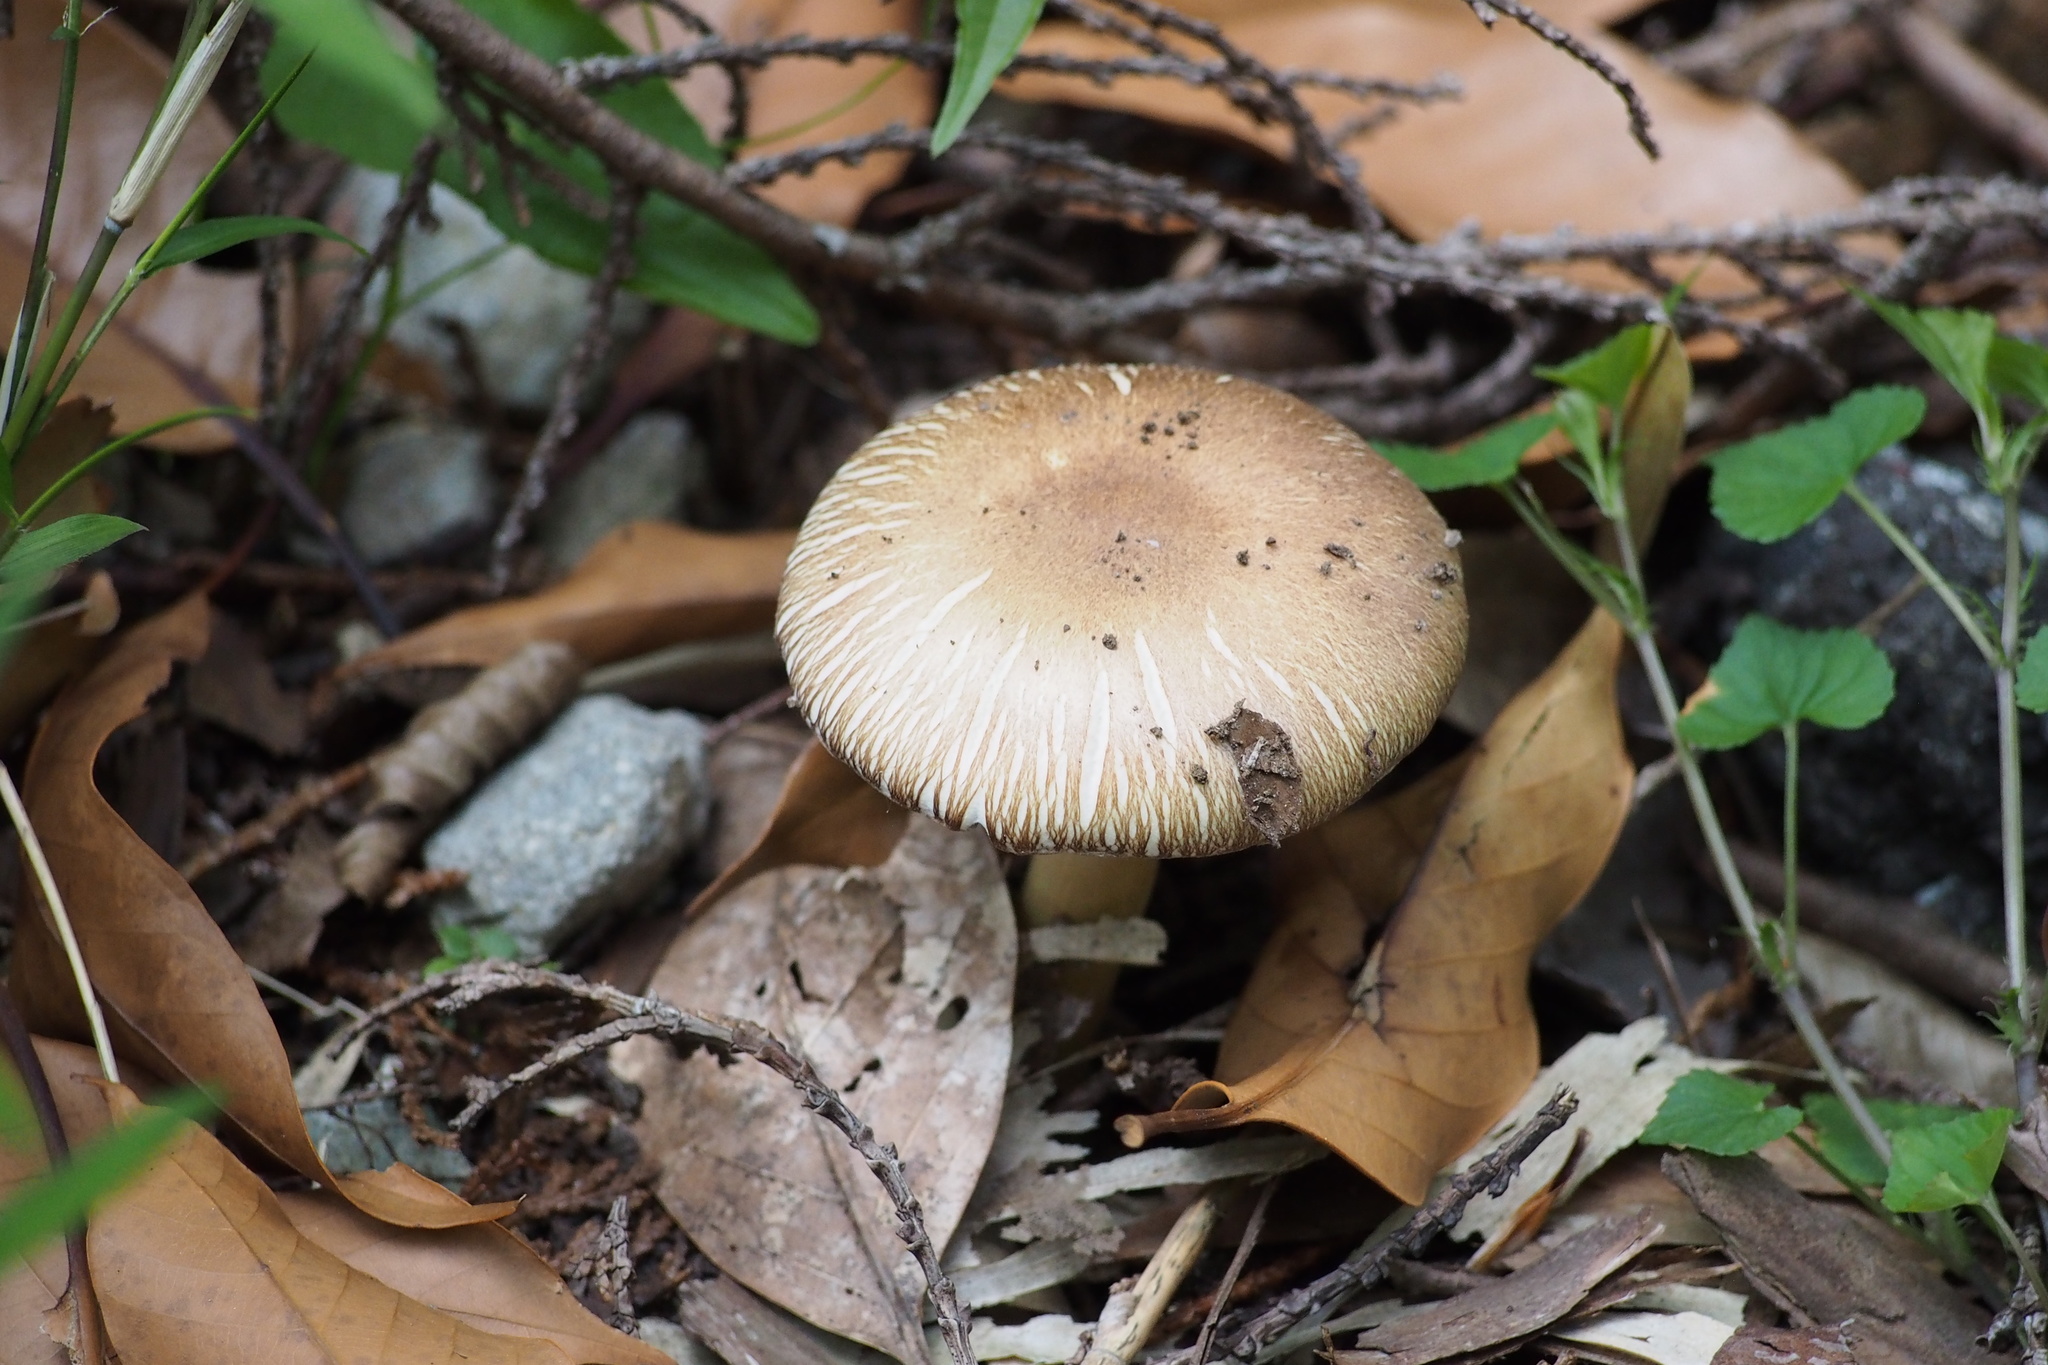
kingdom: Fungi
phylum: Basidiomycota
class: Agaricomycetes
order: Agaricales
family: Strophariaceae
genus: Stropharia
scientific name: Stropharia rugosoannulata
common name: Wine roundhead
